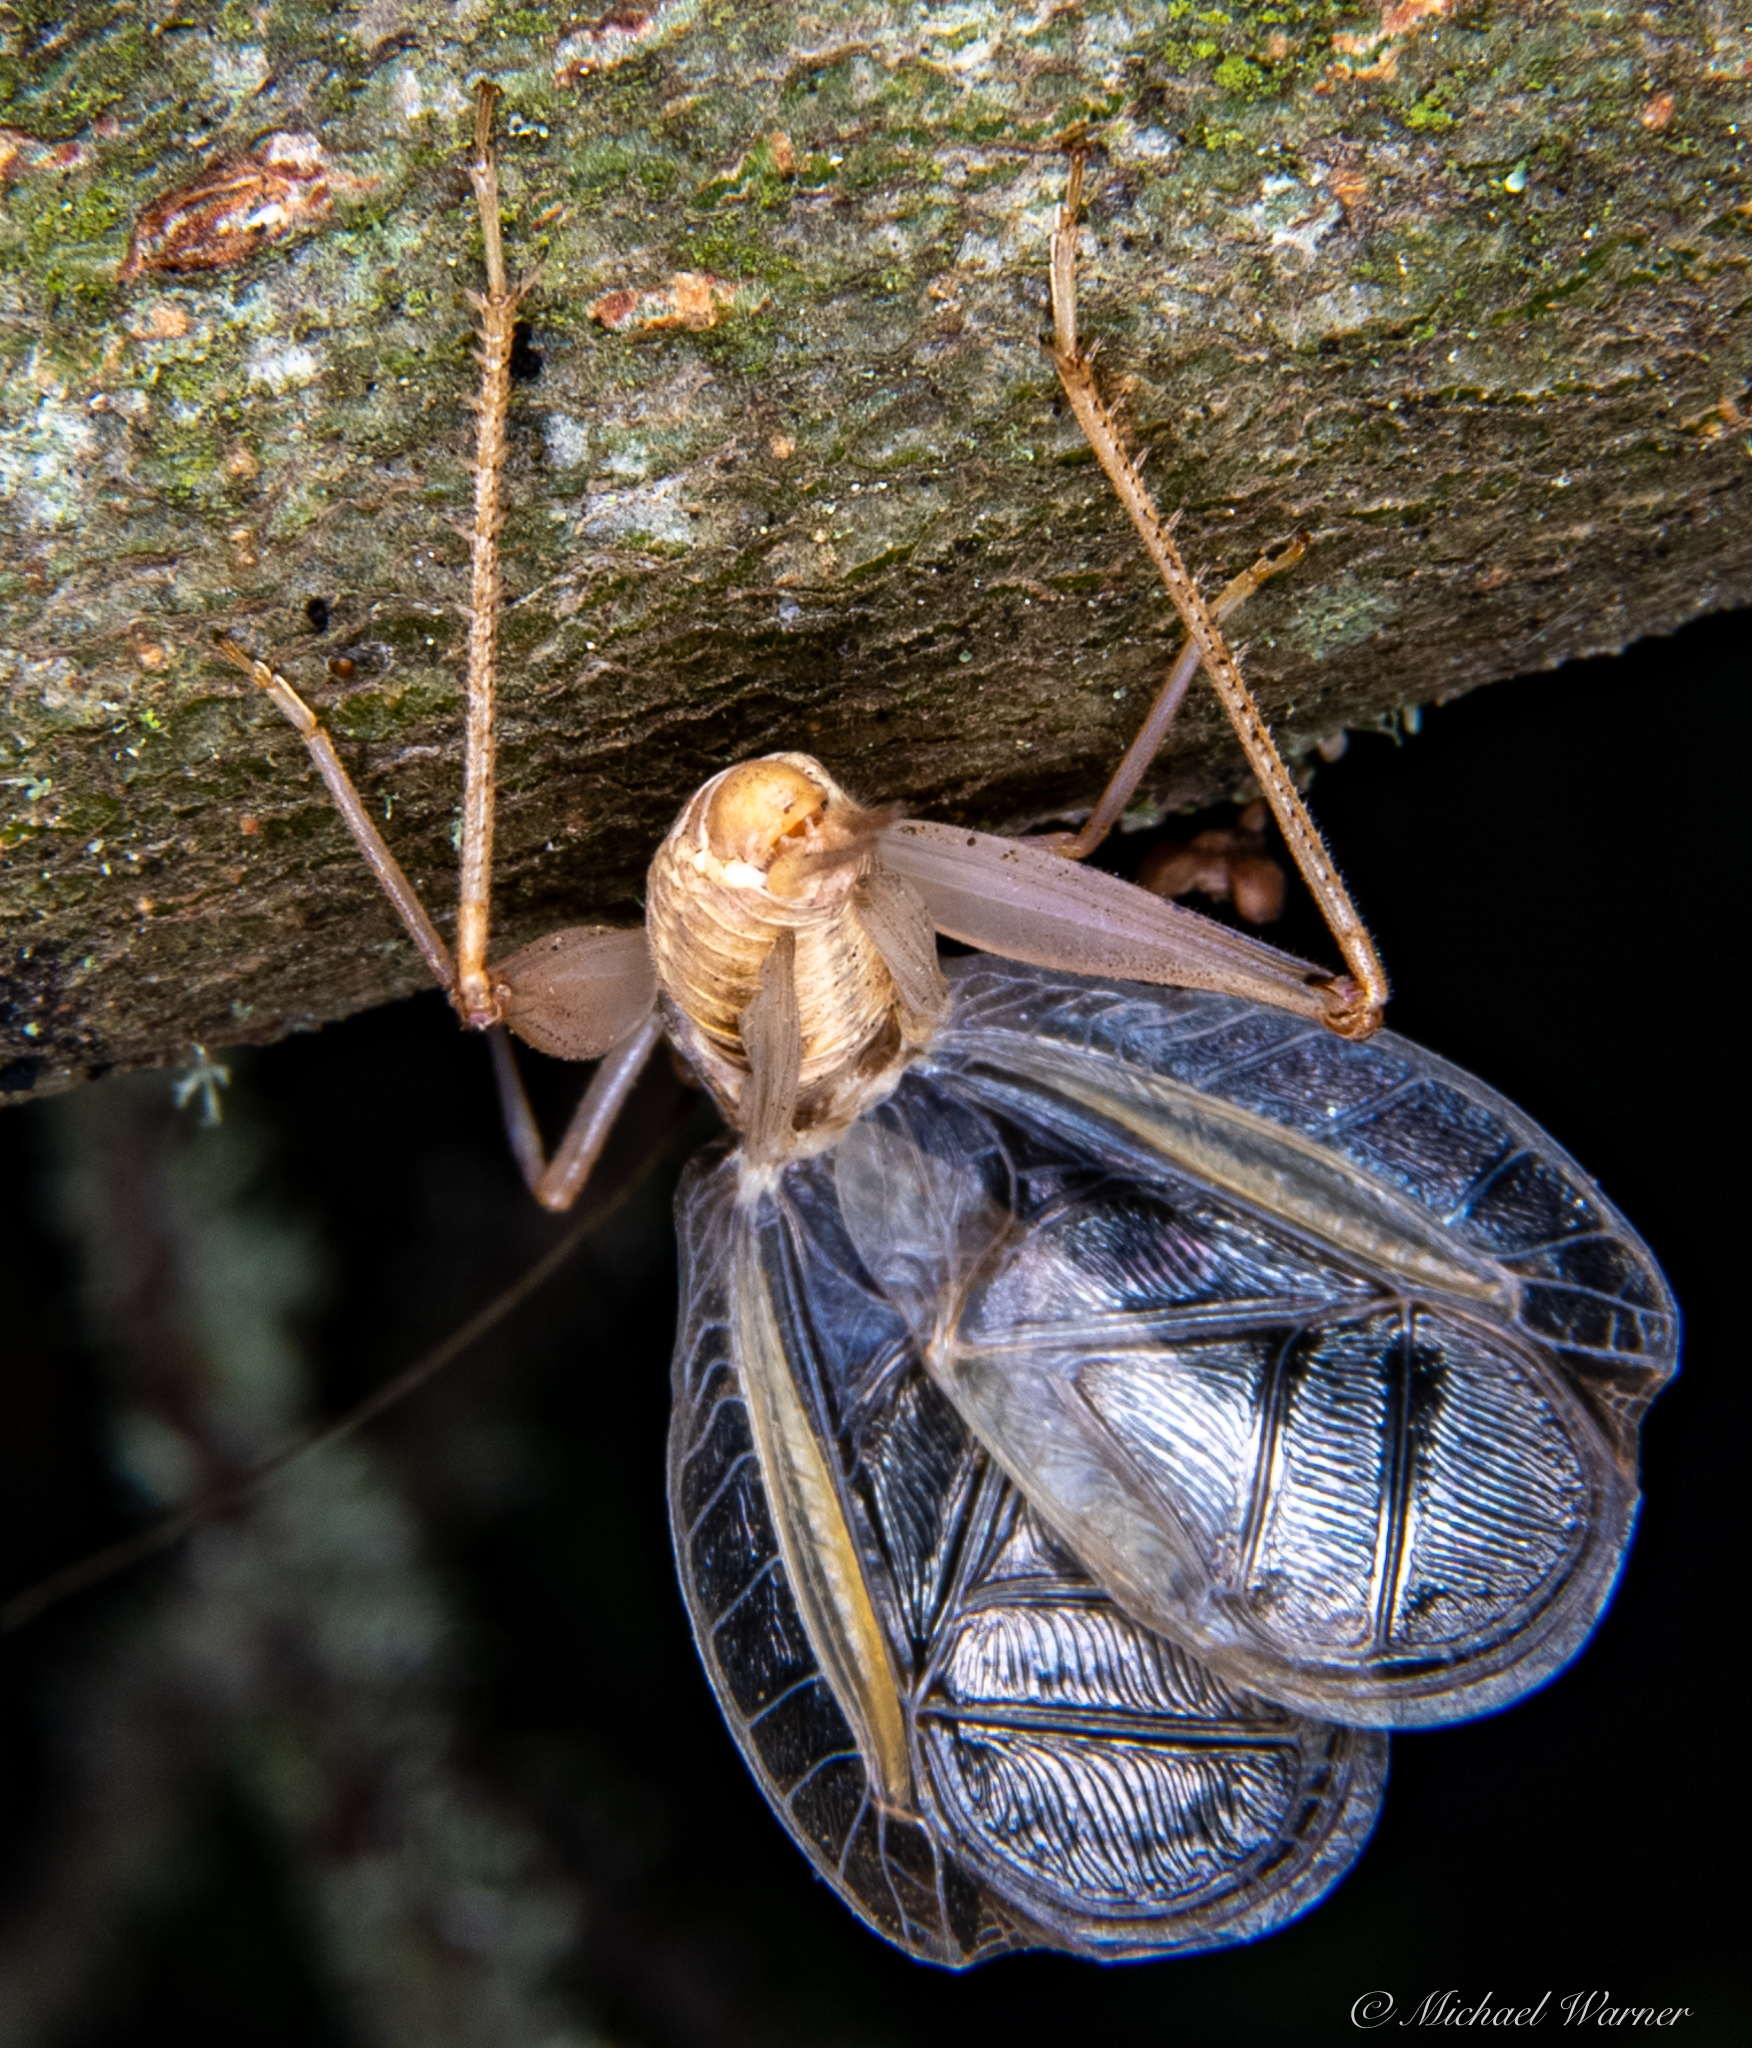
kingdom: Animalia
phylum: Arthropoda
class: Insecta
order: Orthoptera
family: Gryllidae
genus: Oecanthus
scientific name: Oecanthus californicus
